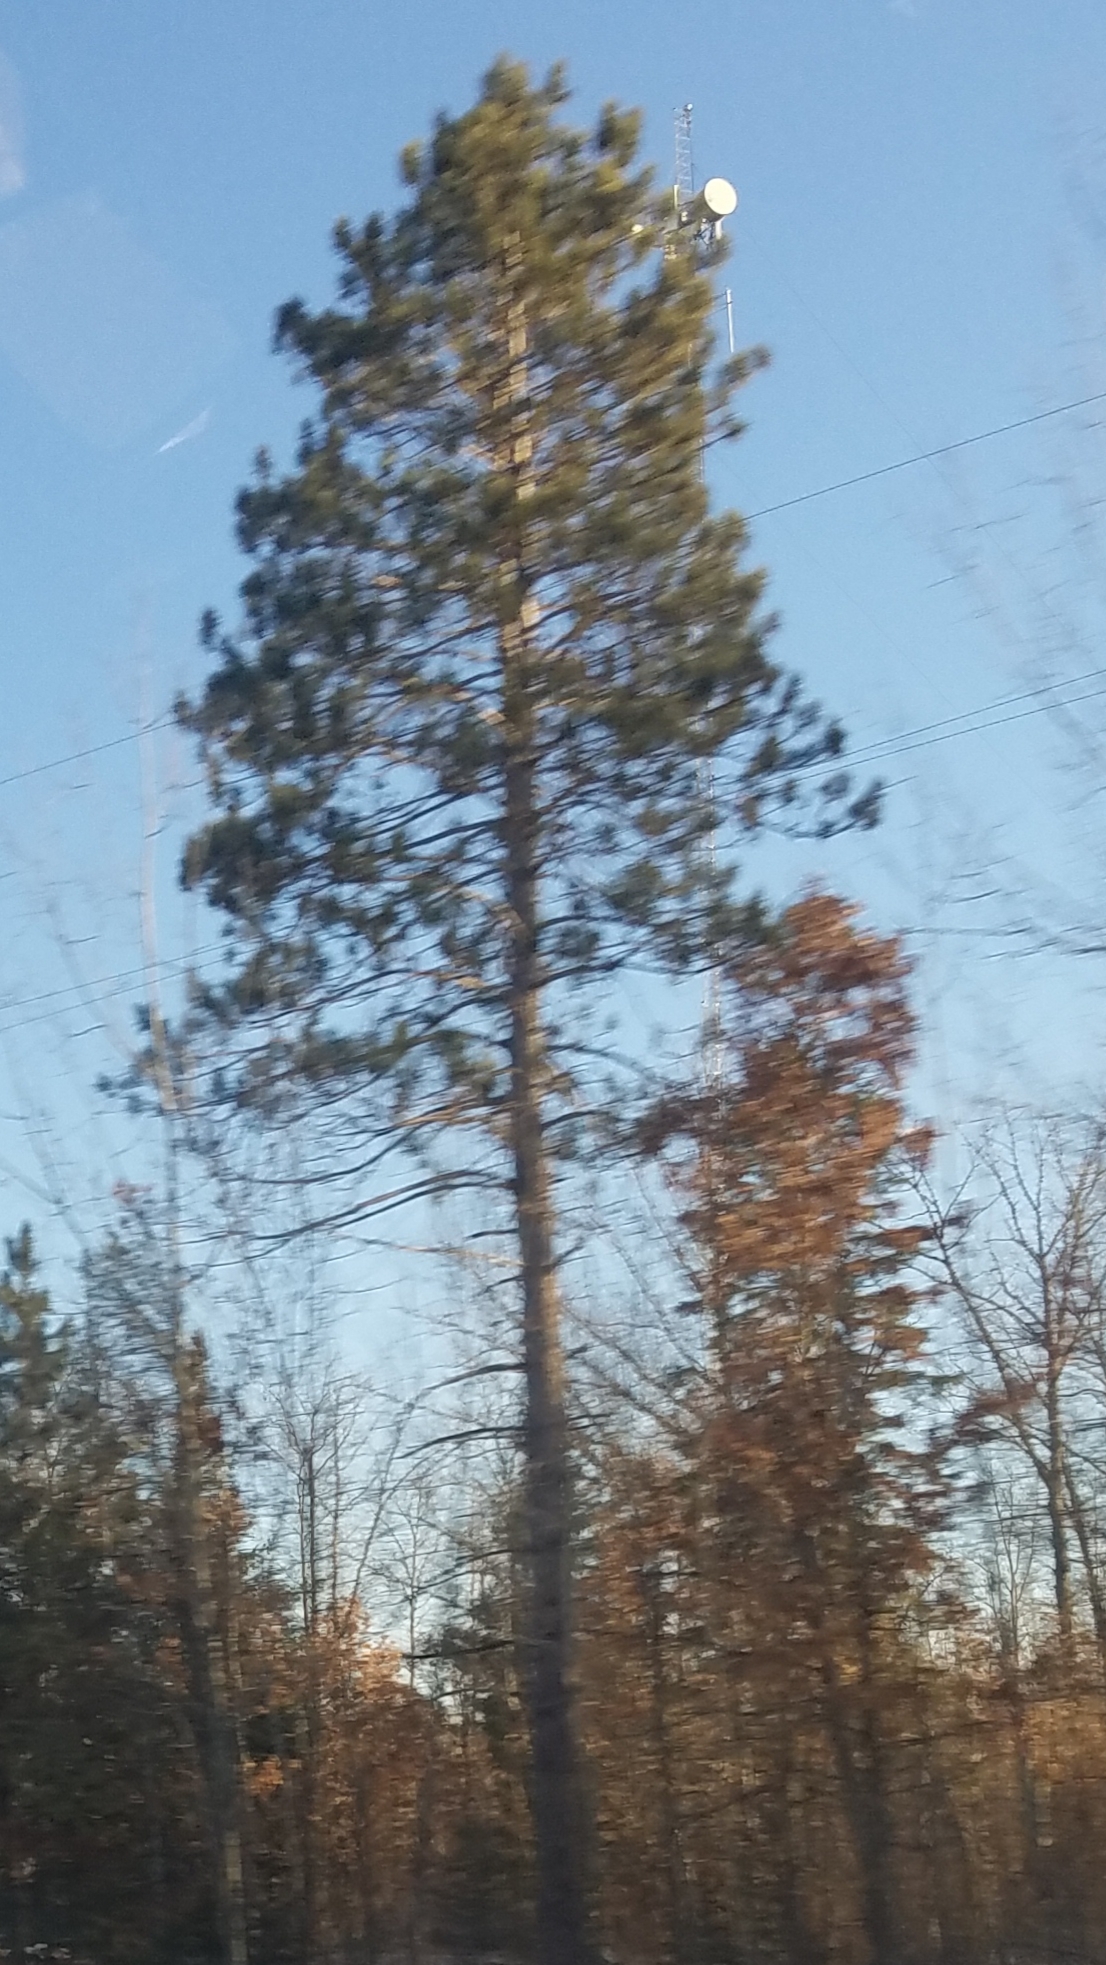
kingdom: Plantae
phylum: Tracheophyta
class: Pinopsida
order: Pinales
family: Pinaceae
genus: Pinus
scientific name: Pinus resinosa
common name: Norway pine
